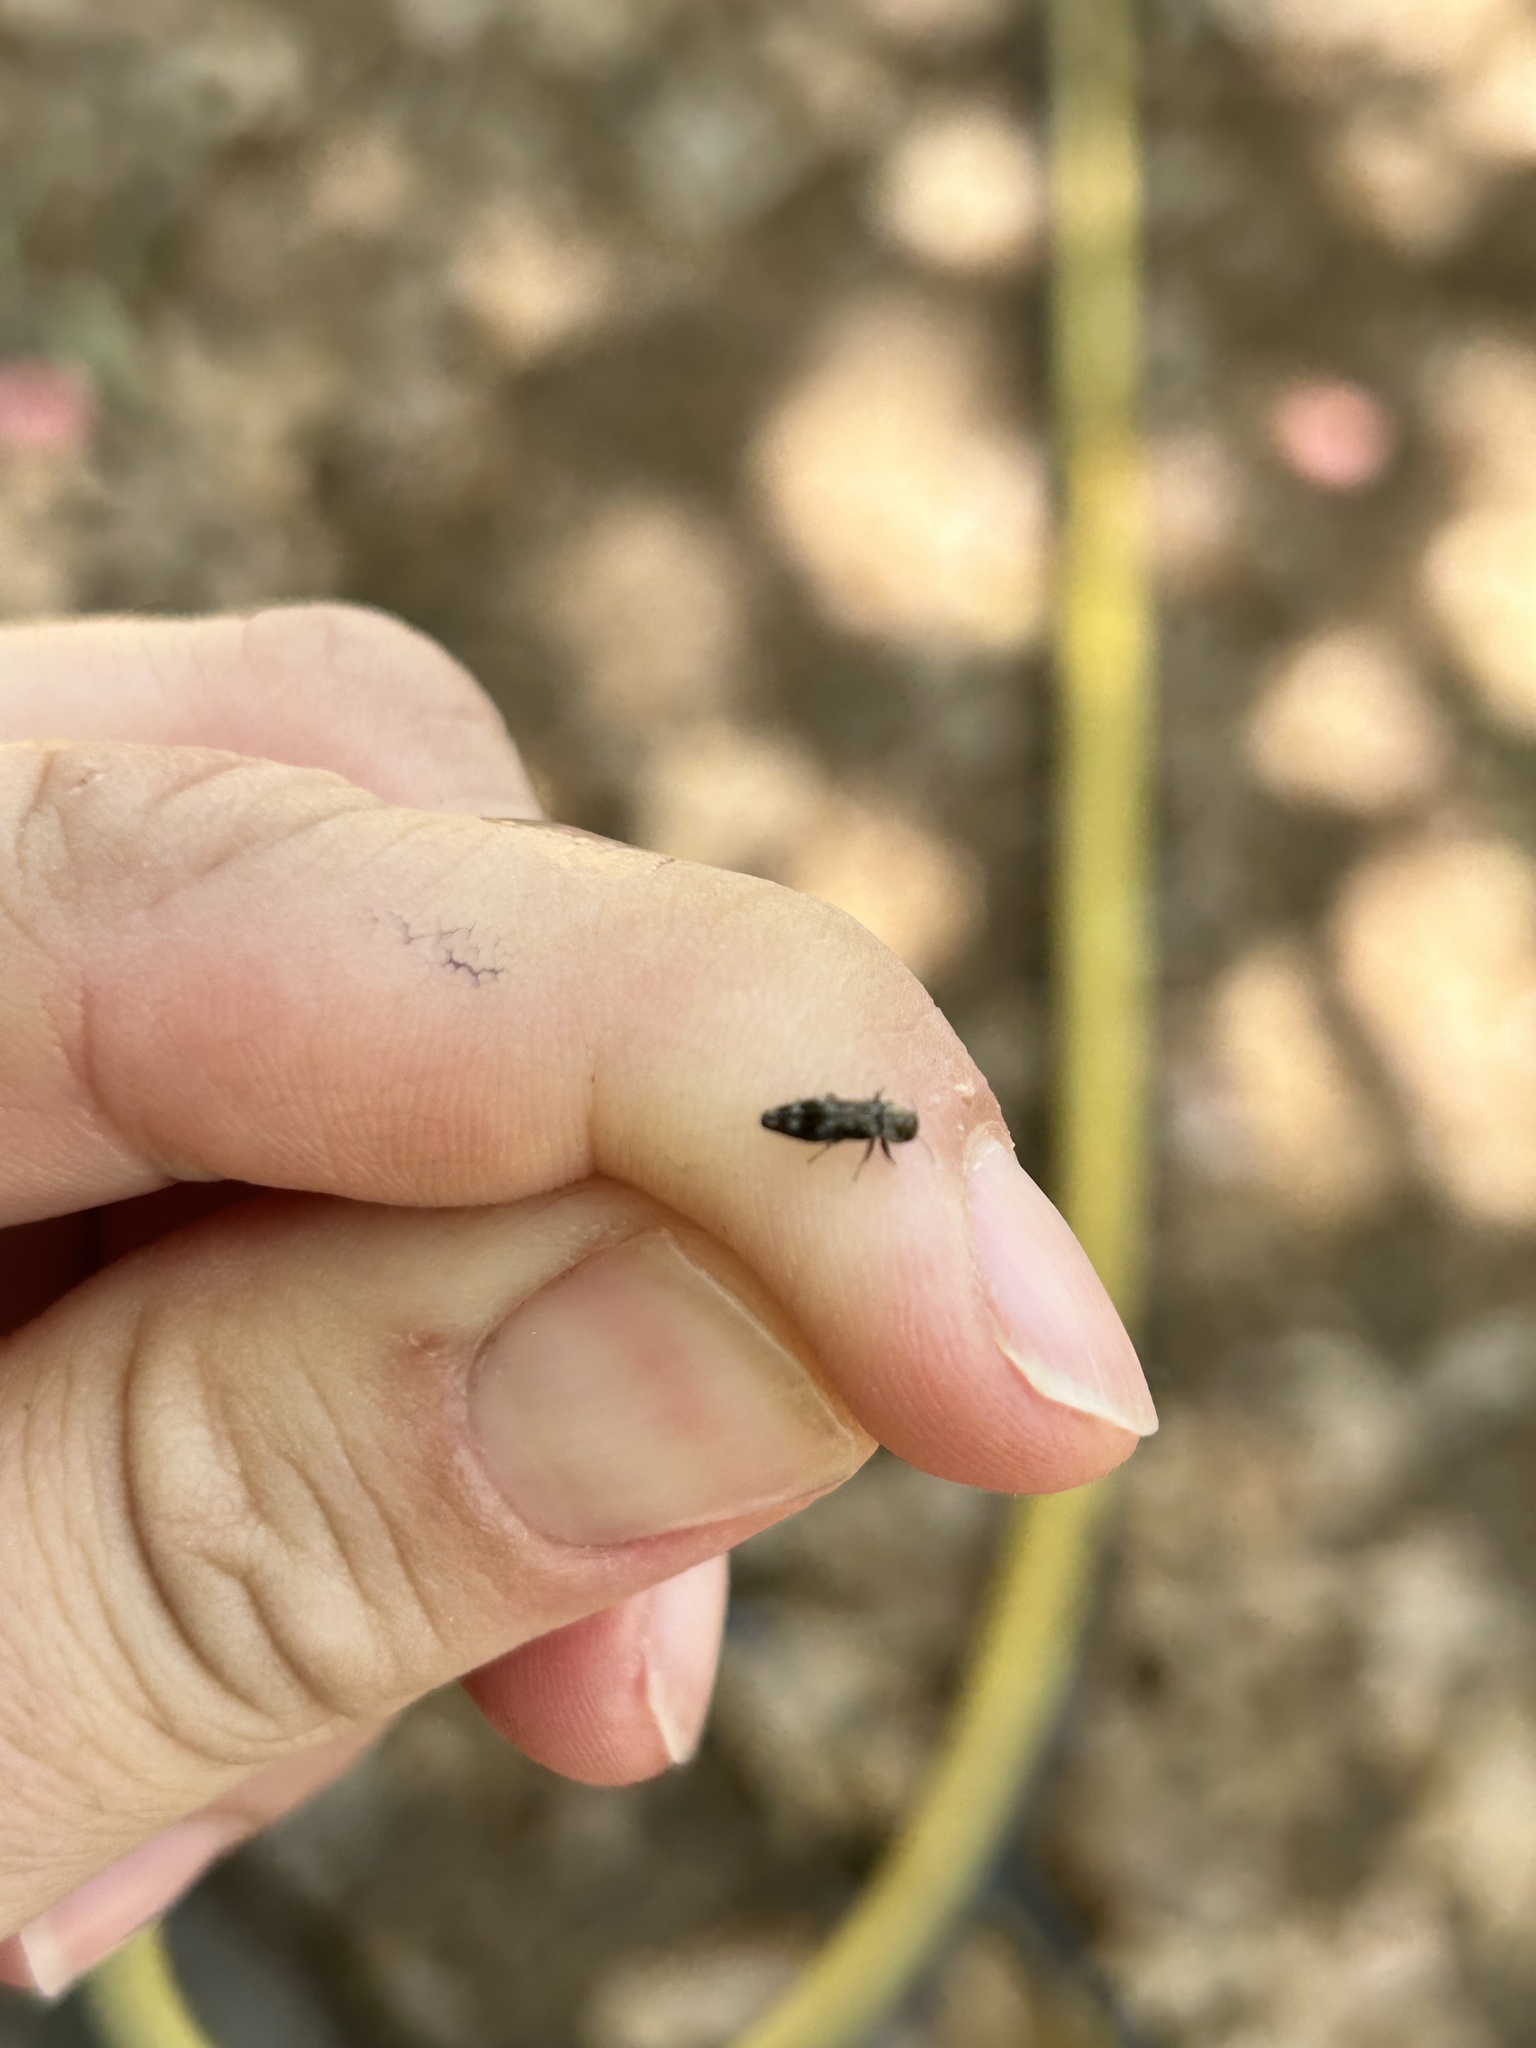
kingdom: Animalia
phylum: Arthropoda
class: Insecta
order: Coleoptera
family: Buprestidae
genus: Agrilus
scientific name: Agrilus lecontei
